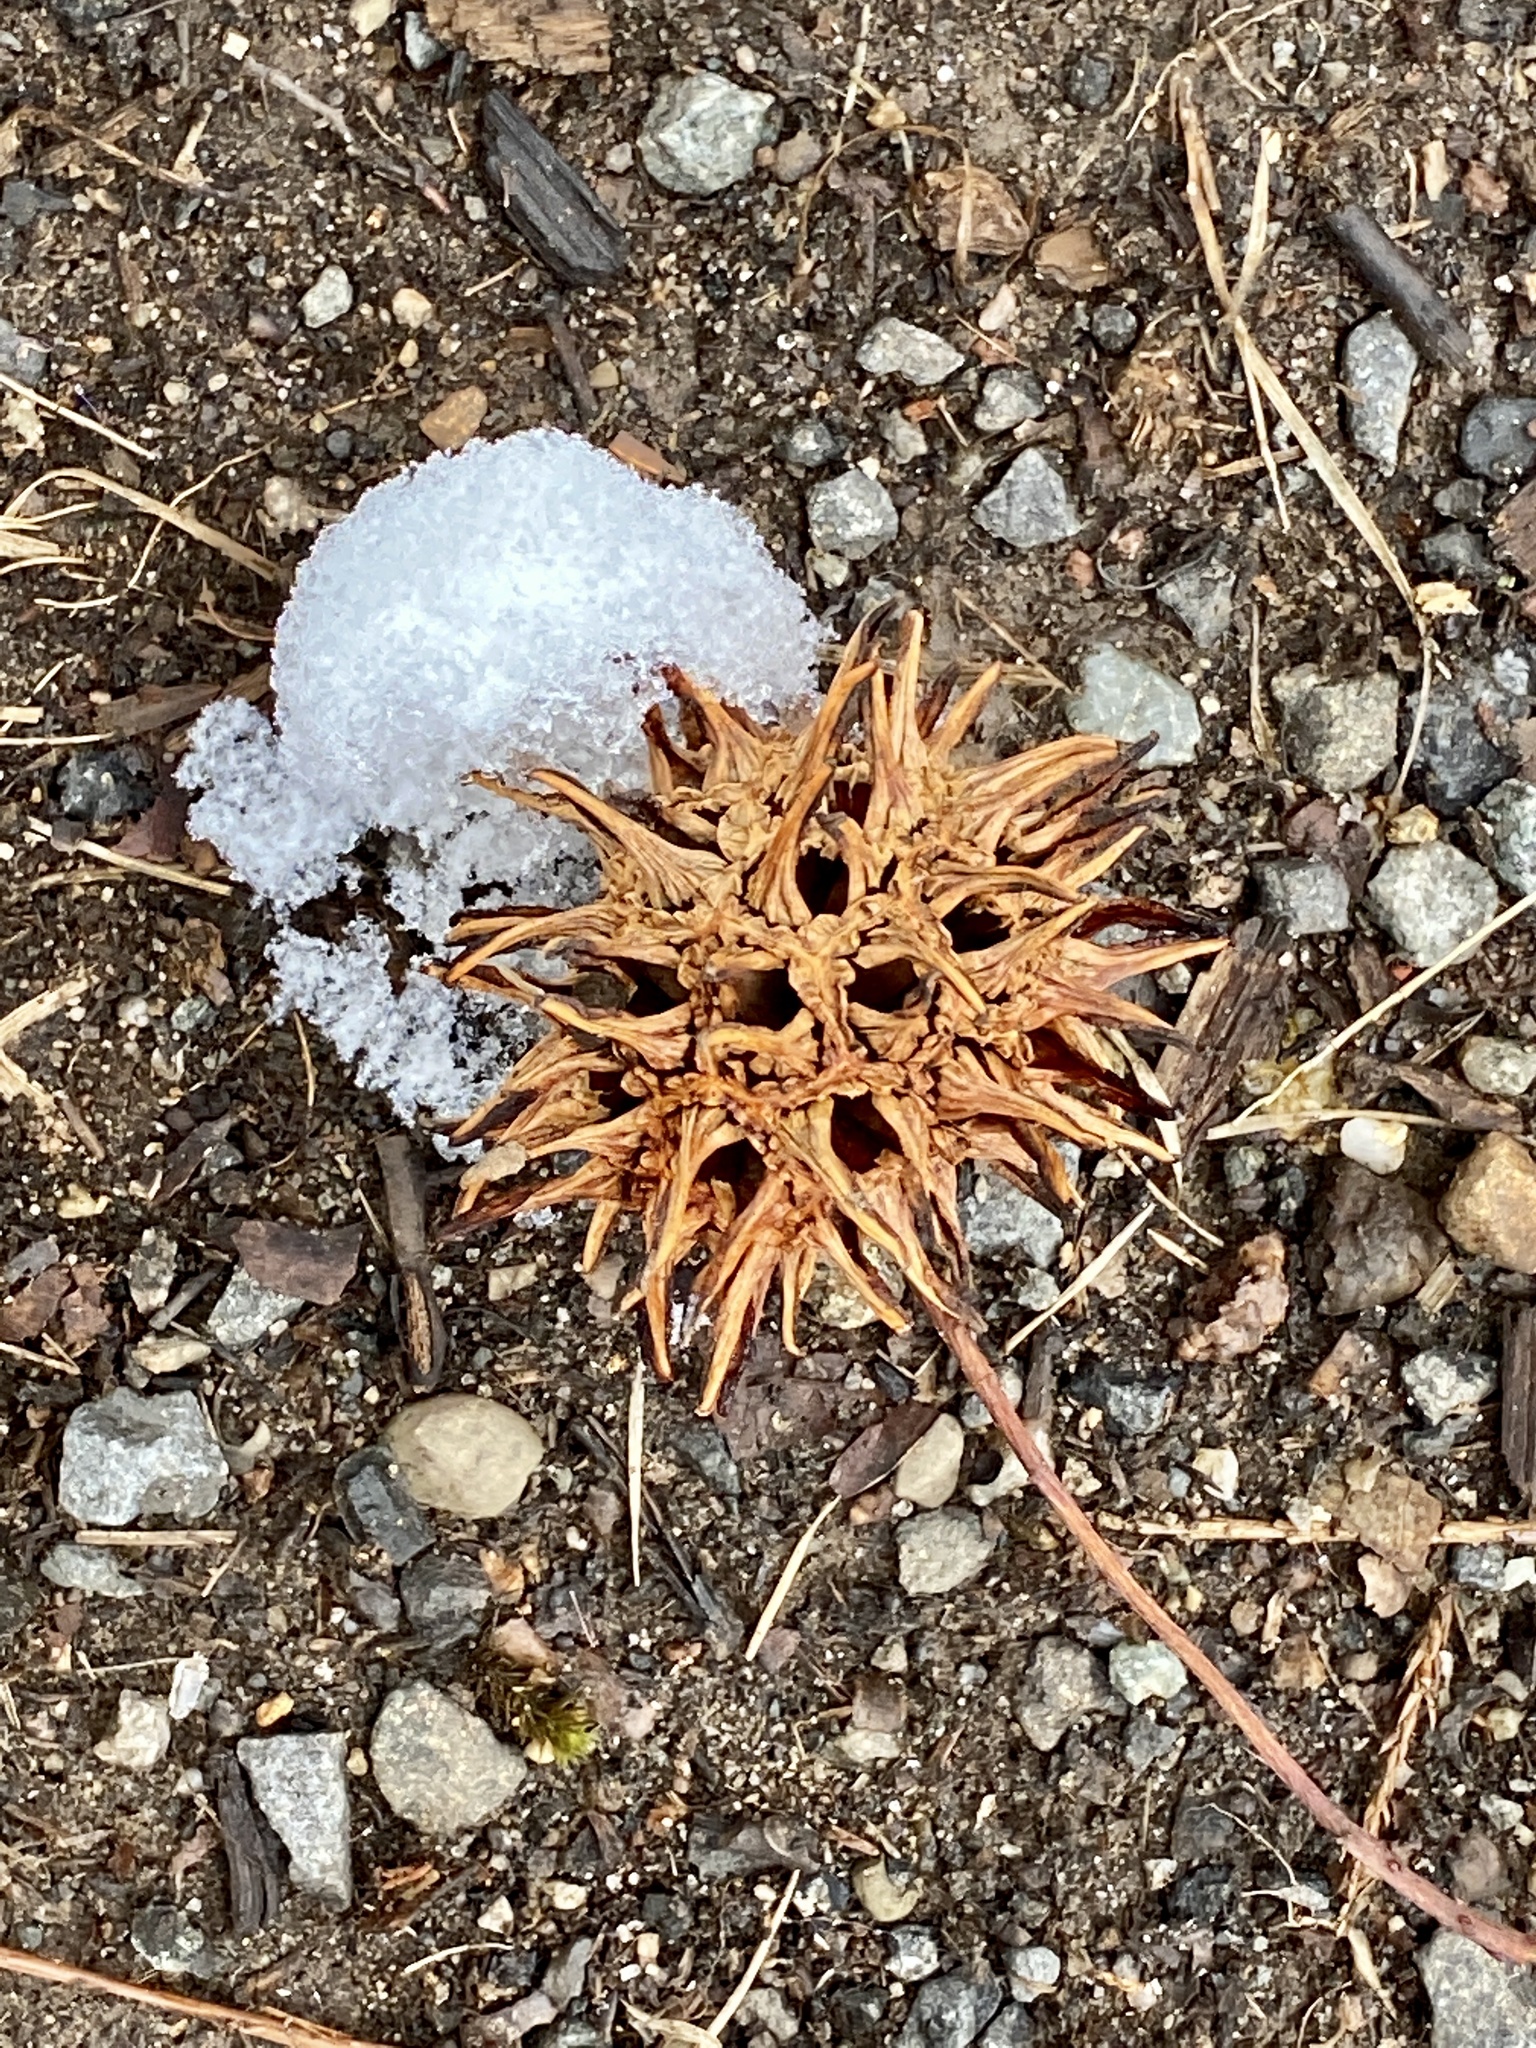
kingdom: Plantae
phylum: Tracheophyta
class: Magnoliopsida
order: Saxifragales
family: Altingiaceae
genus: Liquidambar
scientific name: Liquidambar styraciflua
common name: Sweet gum
